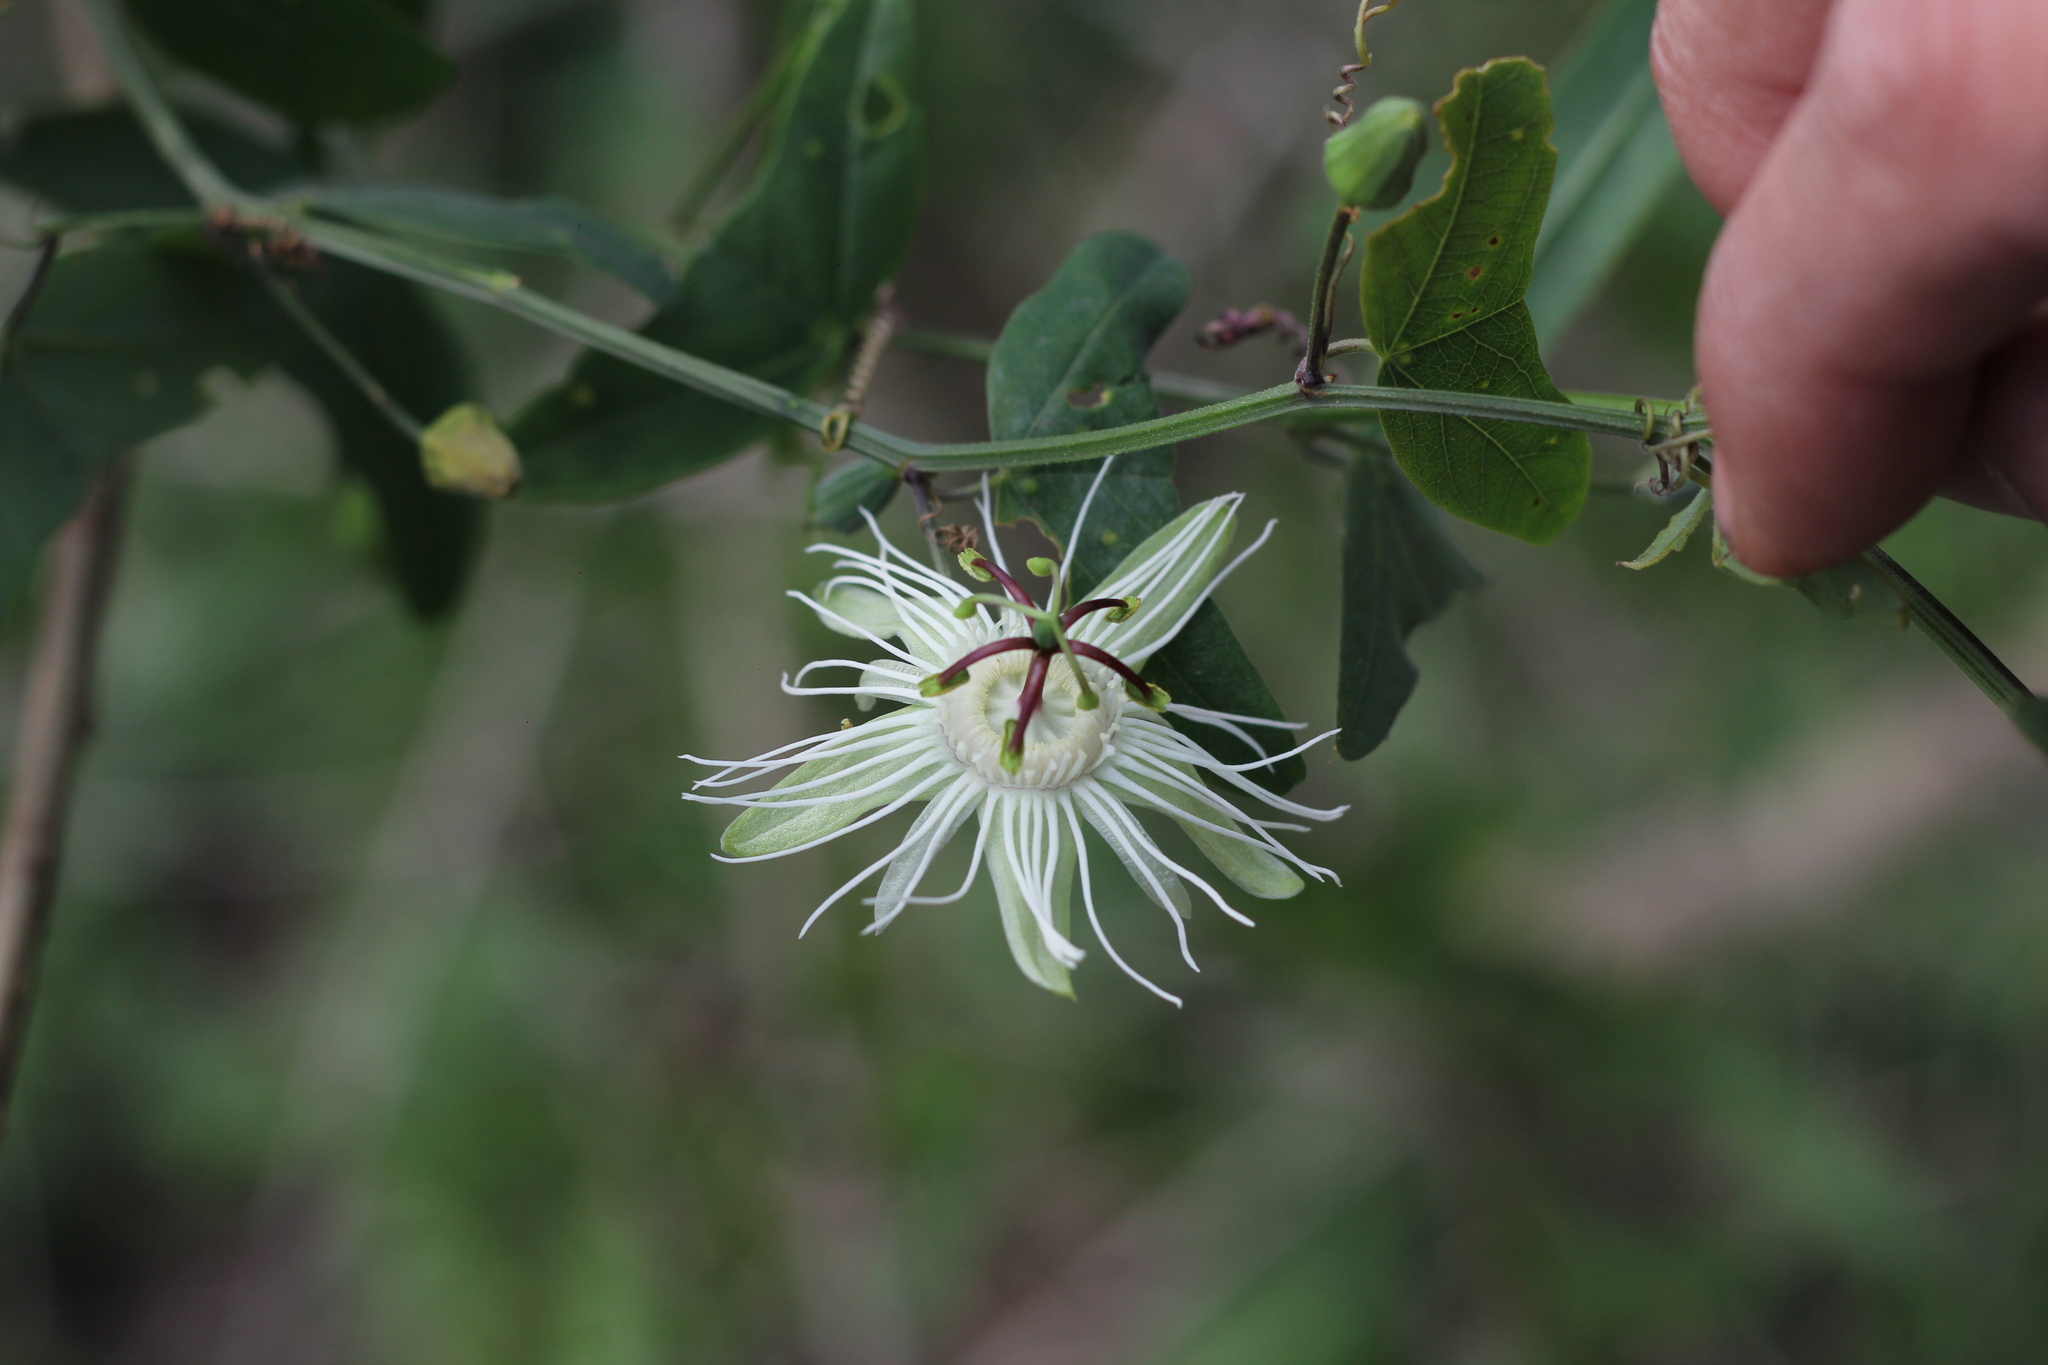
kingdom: Plantae
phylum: Tracheophyta
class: Magnoliopsida
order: Malpighiales
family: Passifloraceae
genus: Passiflora
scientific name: Passiflora misera
